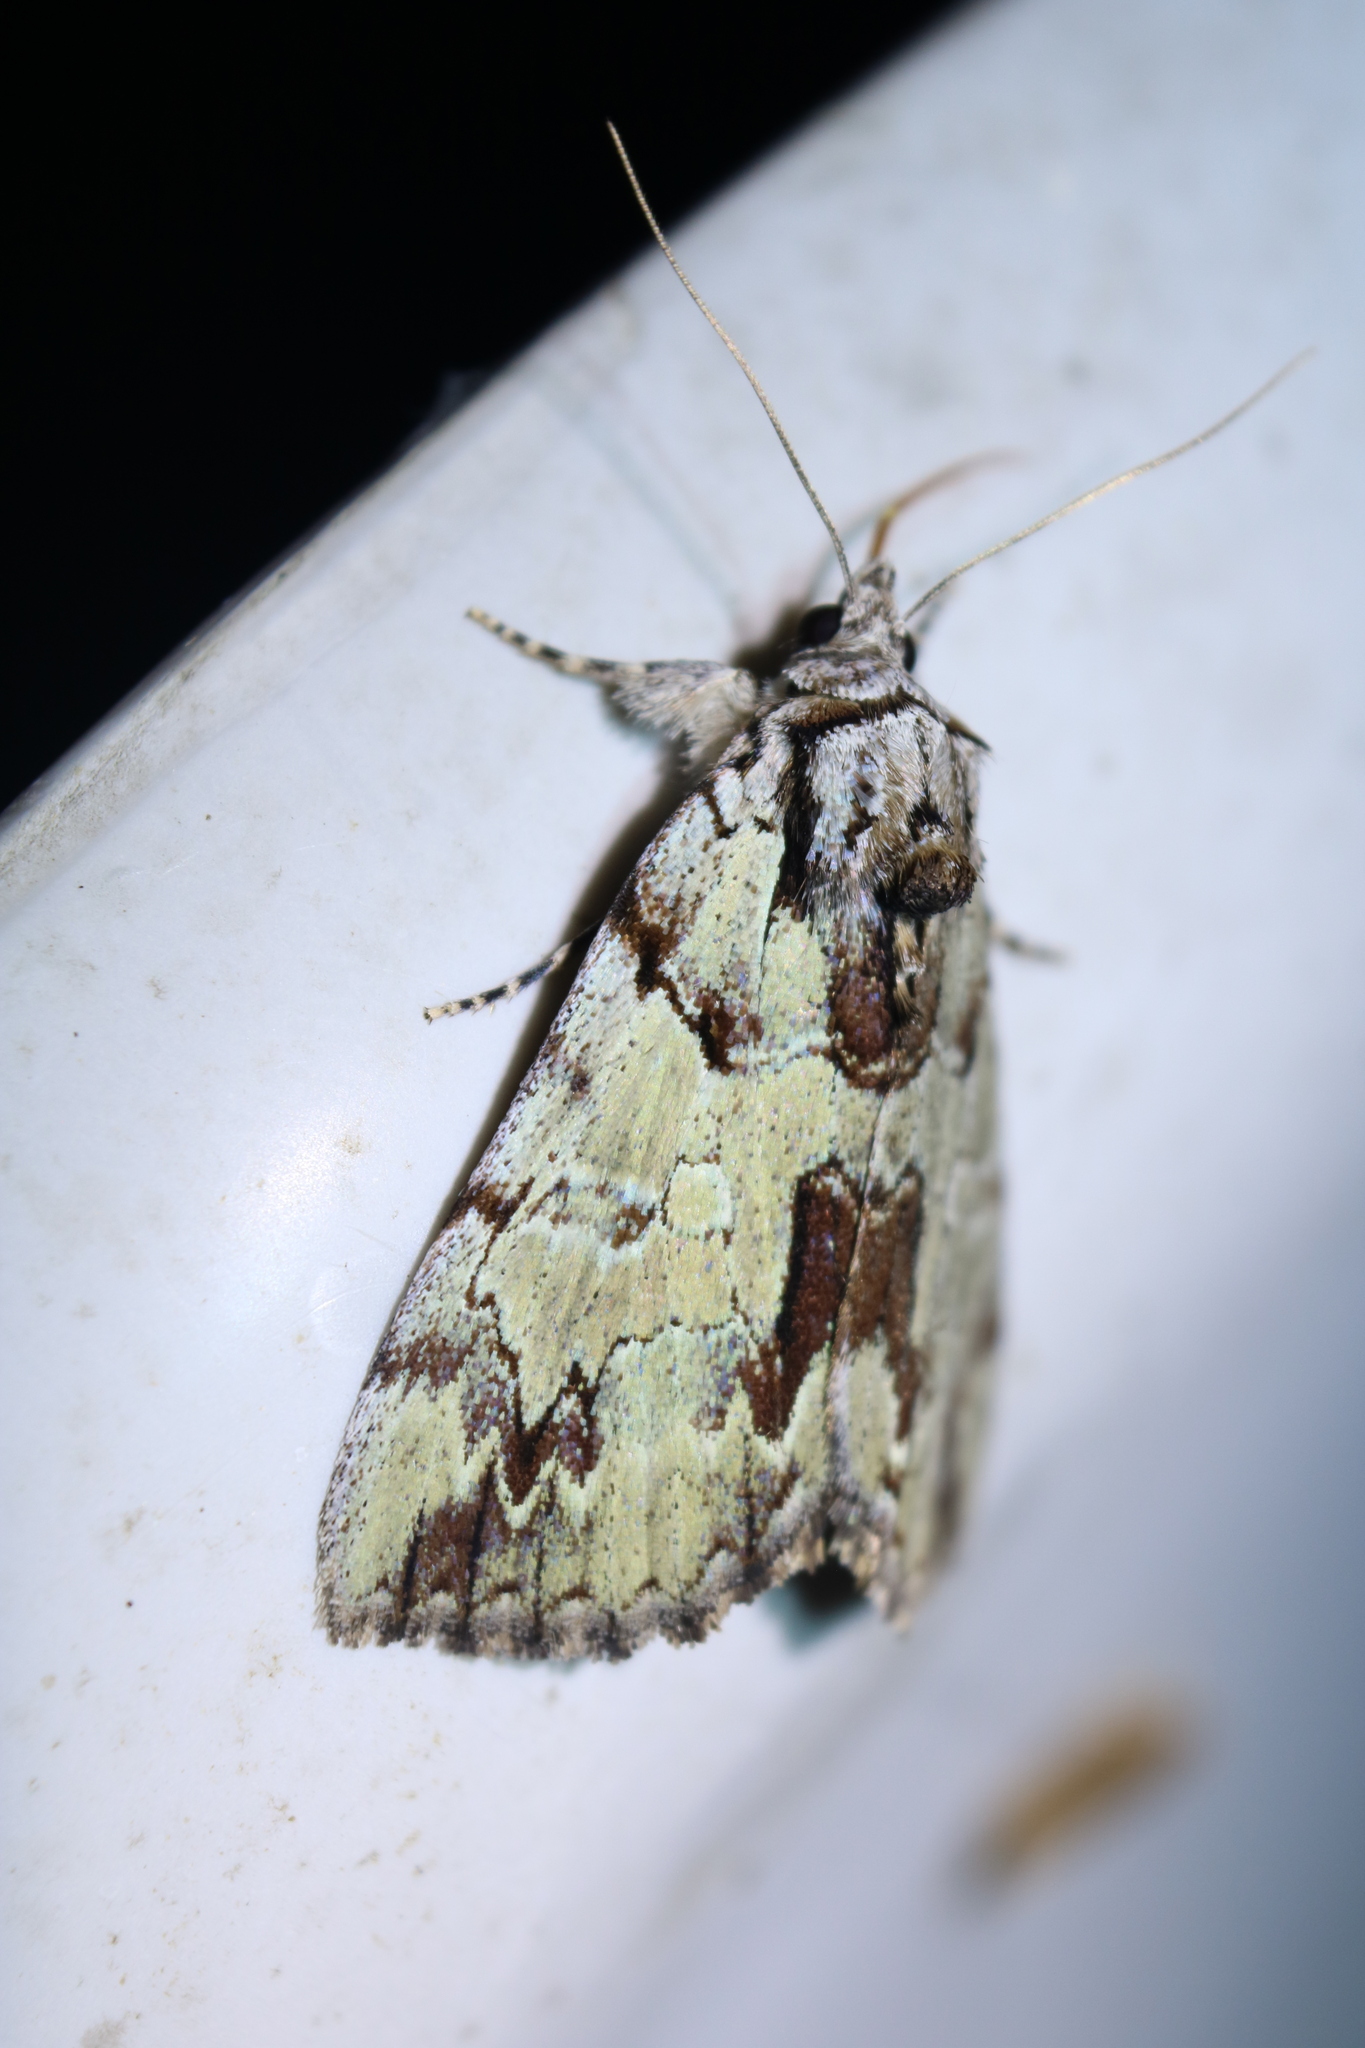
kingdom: Animalia
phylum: Arthropoda
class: Insecta
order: Lepidoptera
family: Erebidae
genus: Catocala
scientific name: Catocala praeclara
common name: Praeclara underwing
